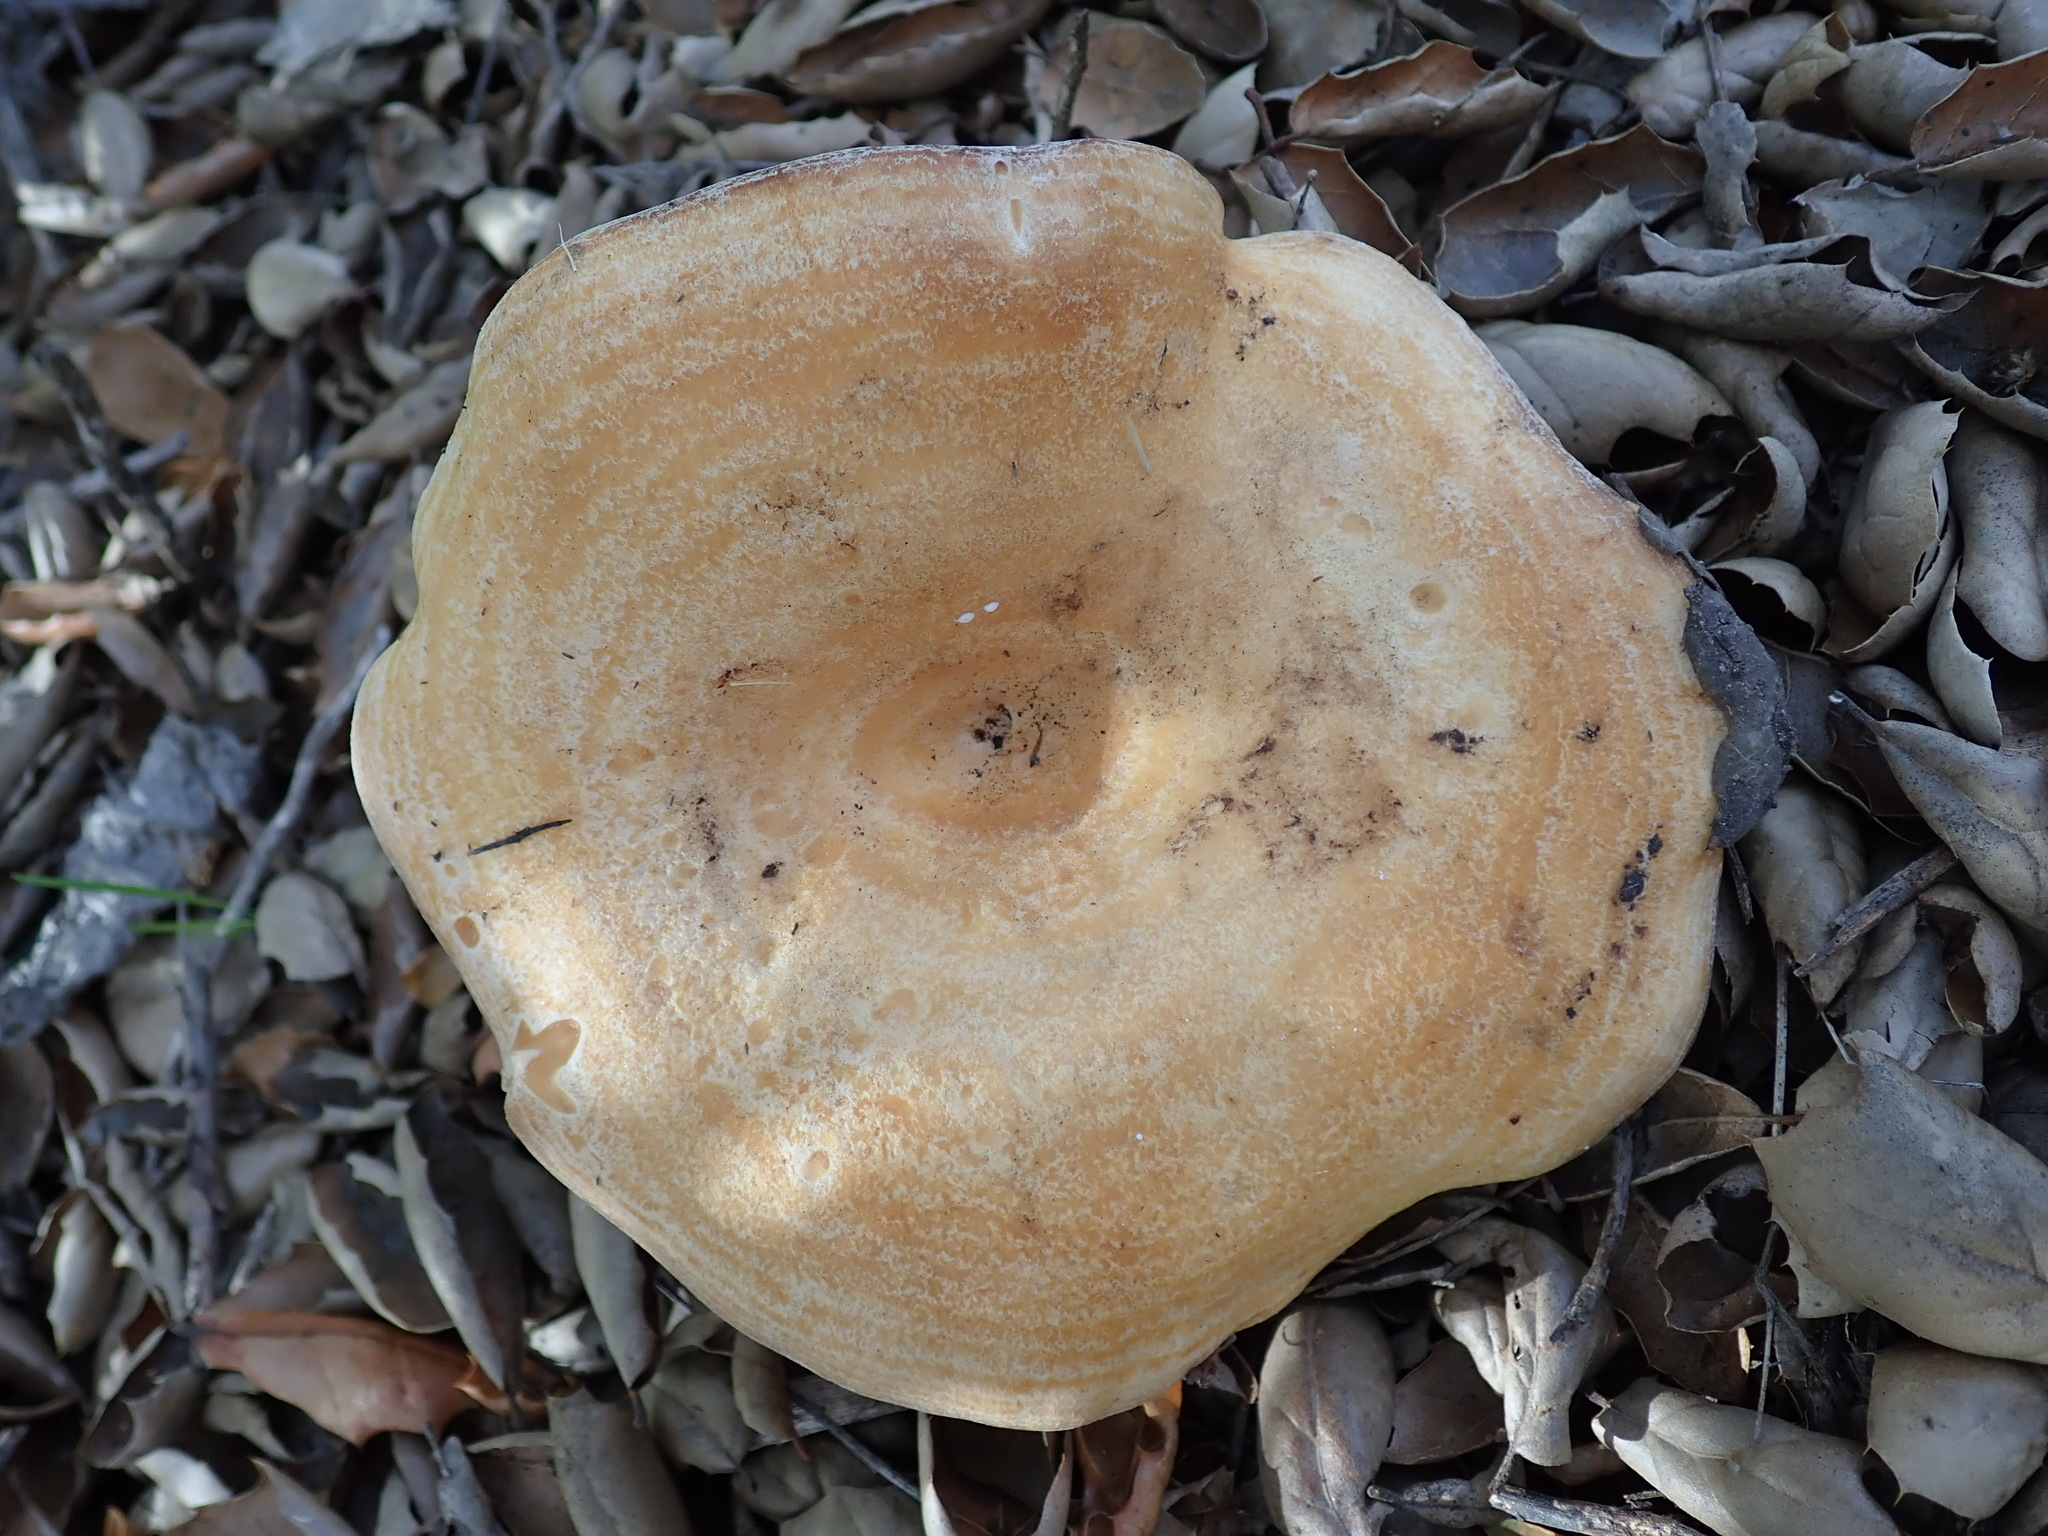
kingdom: Fungi
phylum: Basidiomycota
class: Agaricomycetes
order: Russulales
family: Russulaceae
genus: Lactarius
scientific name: Lactarius alnicola
